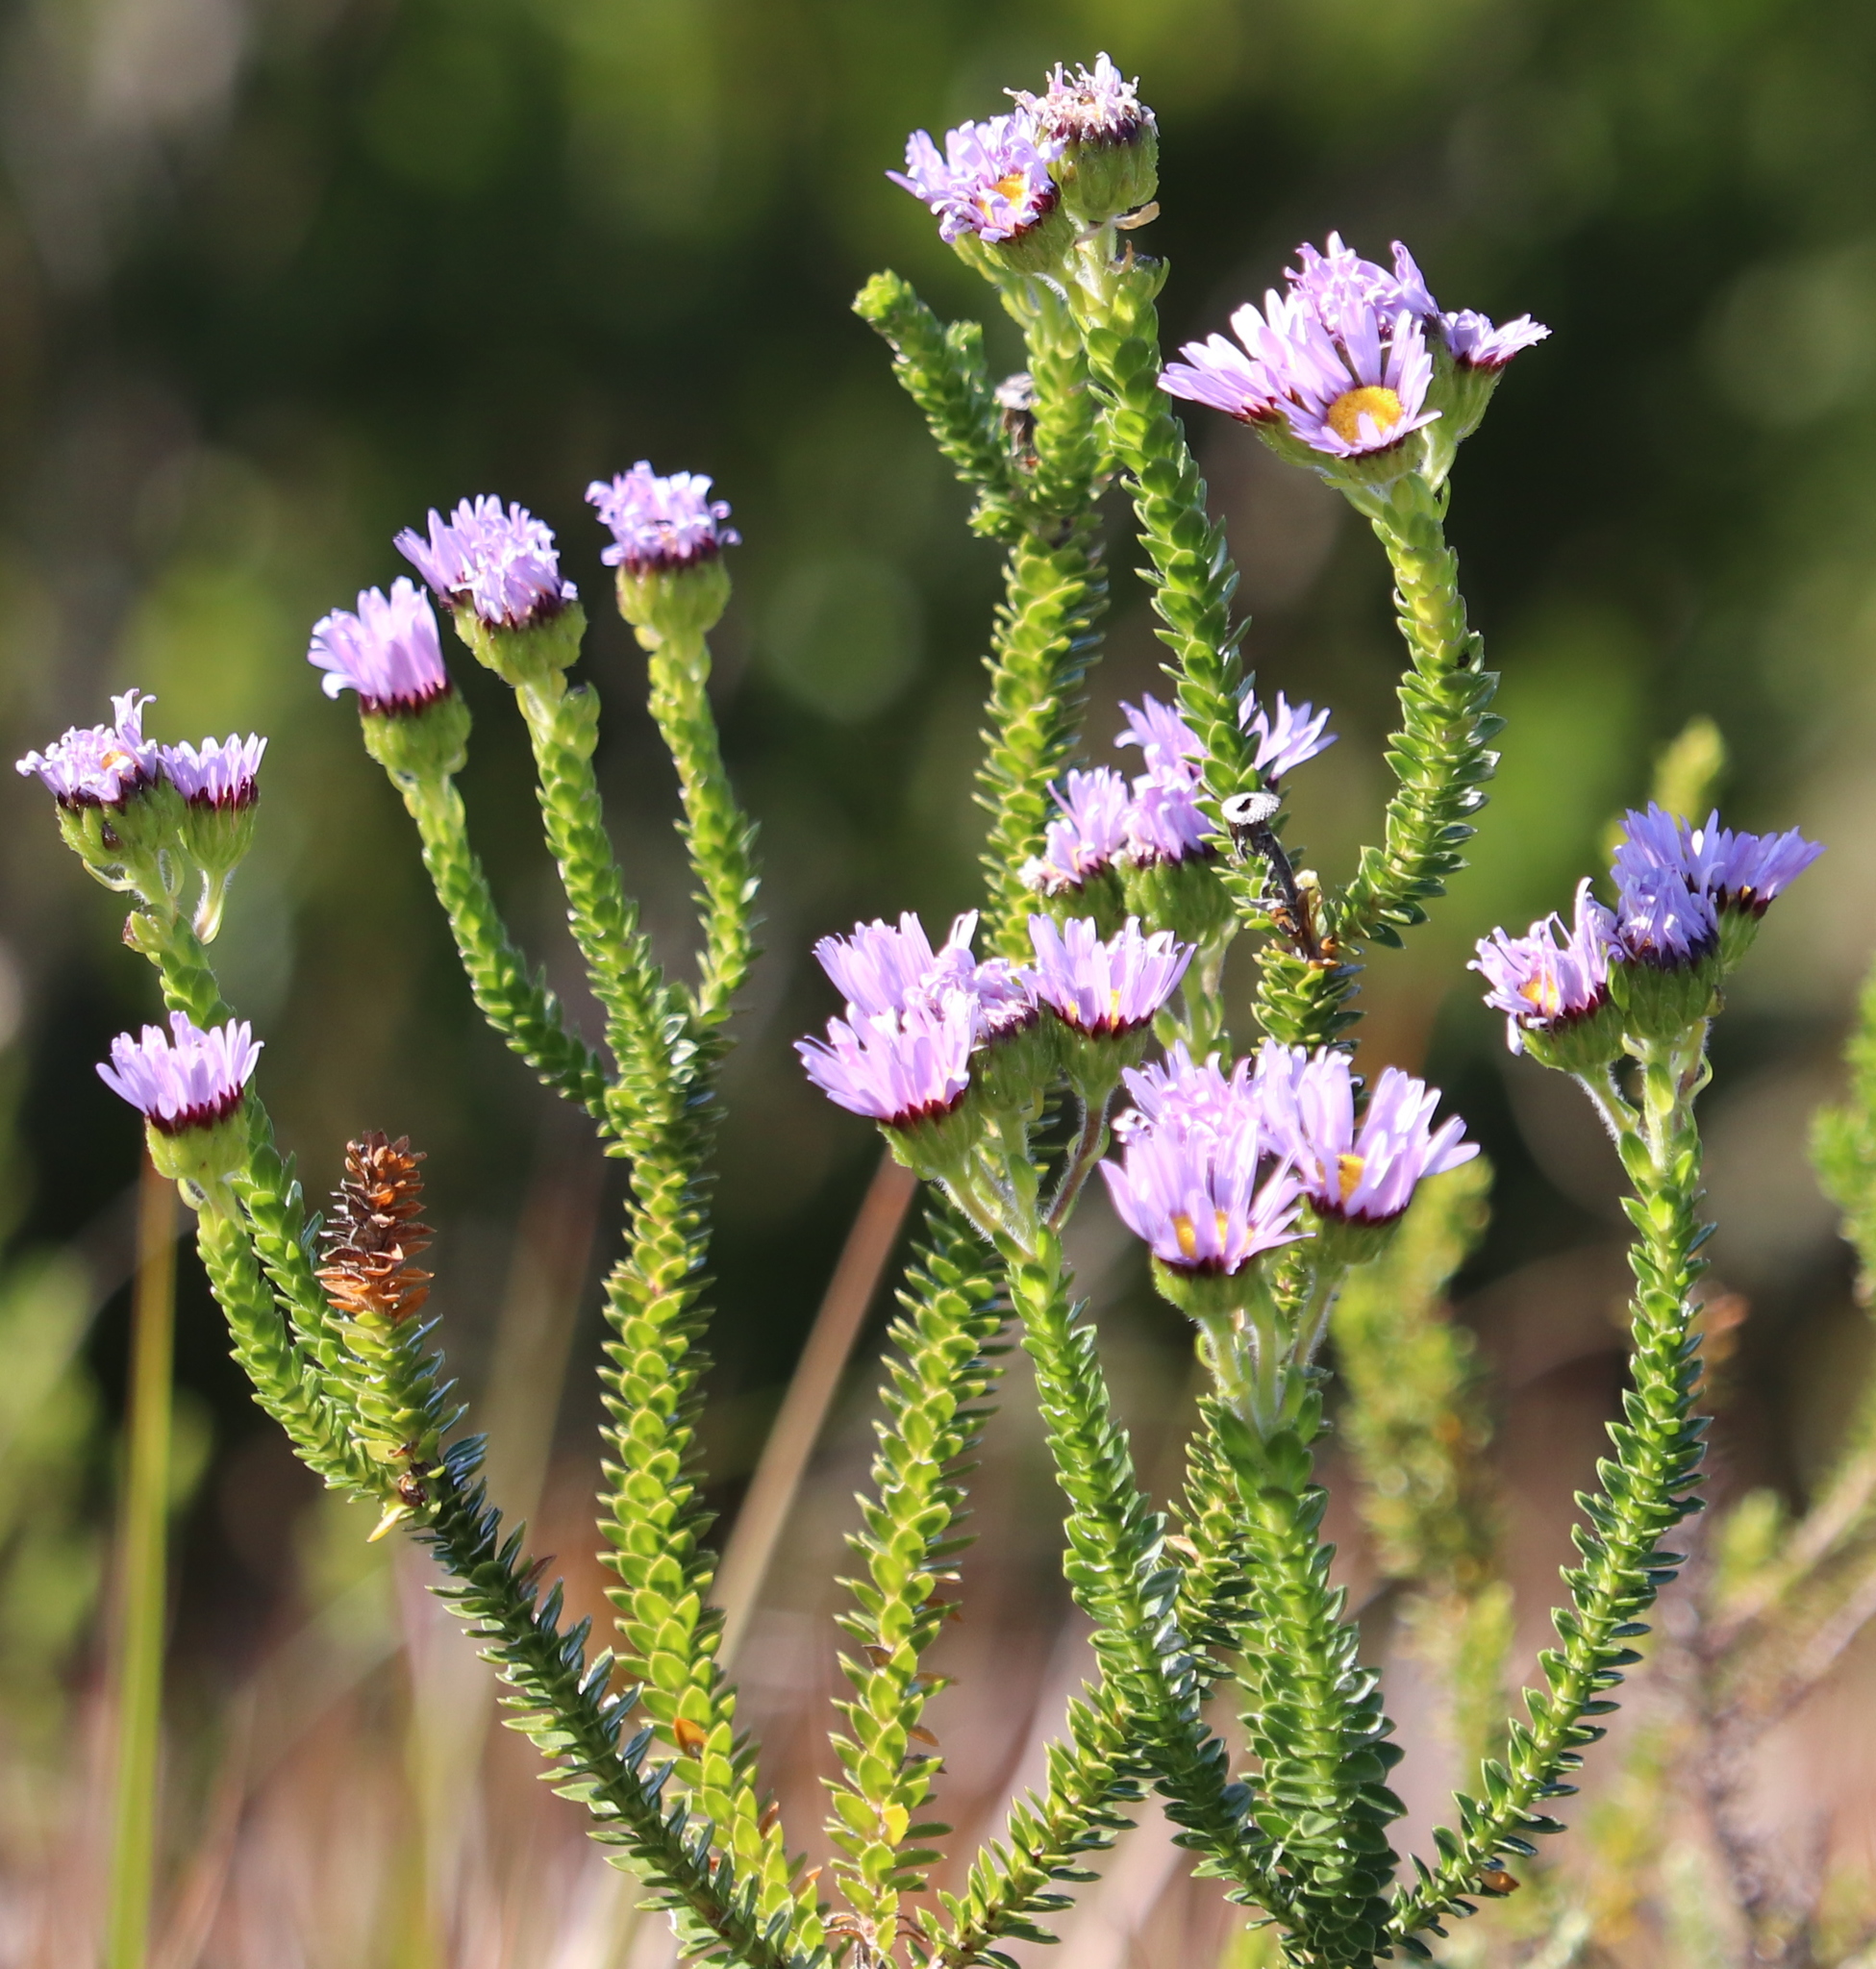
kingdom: Plantae
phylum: Tracheophyta
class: Magnoliopsida
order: Asterales
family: Asteraceae
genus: Felicia
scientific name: Felicia echinata
